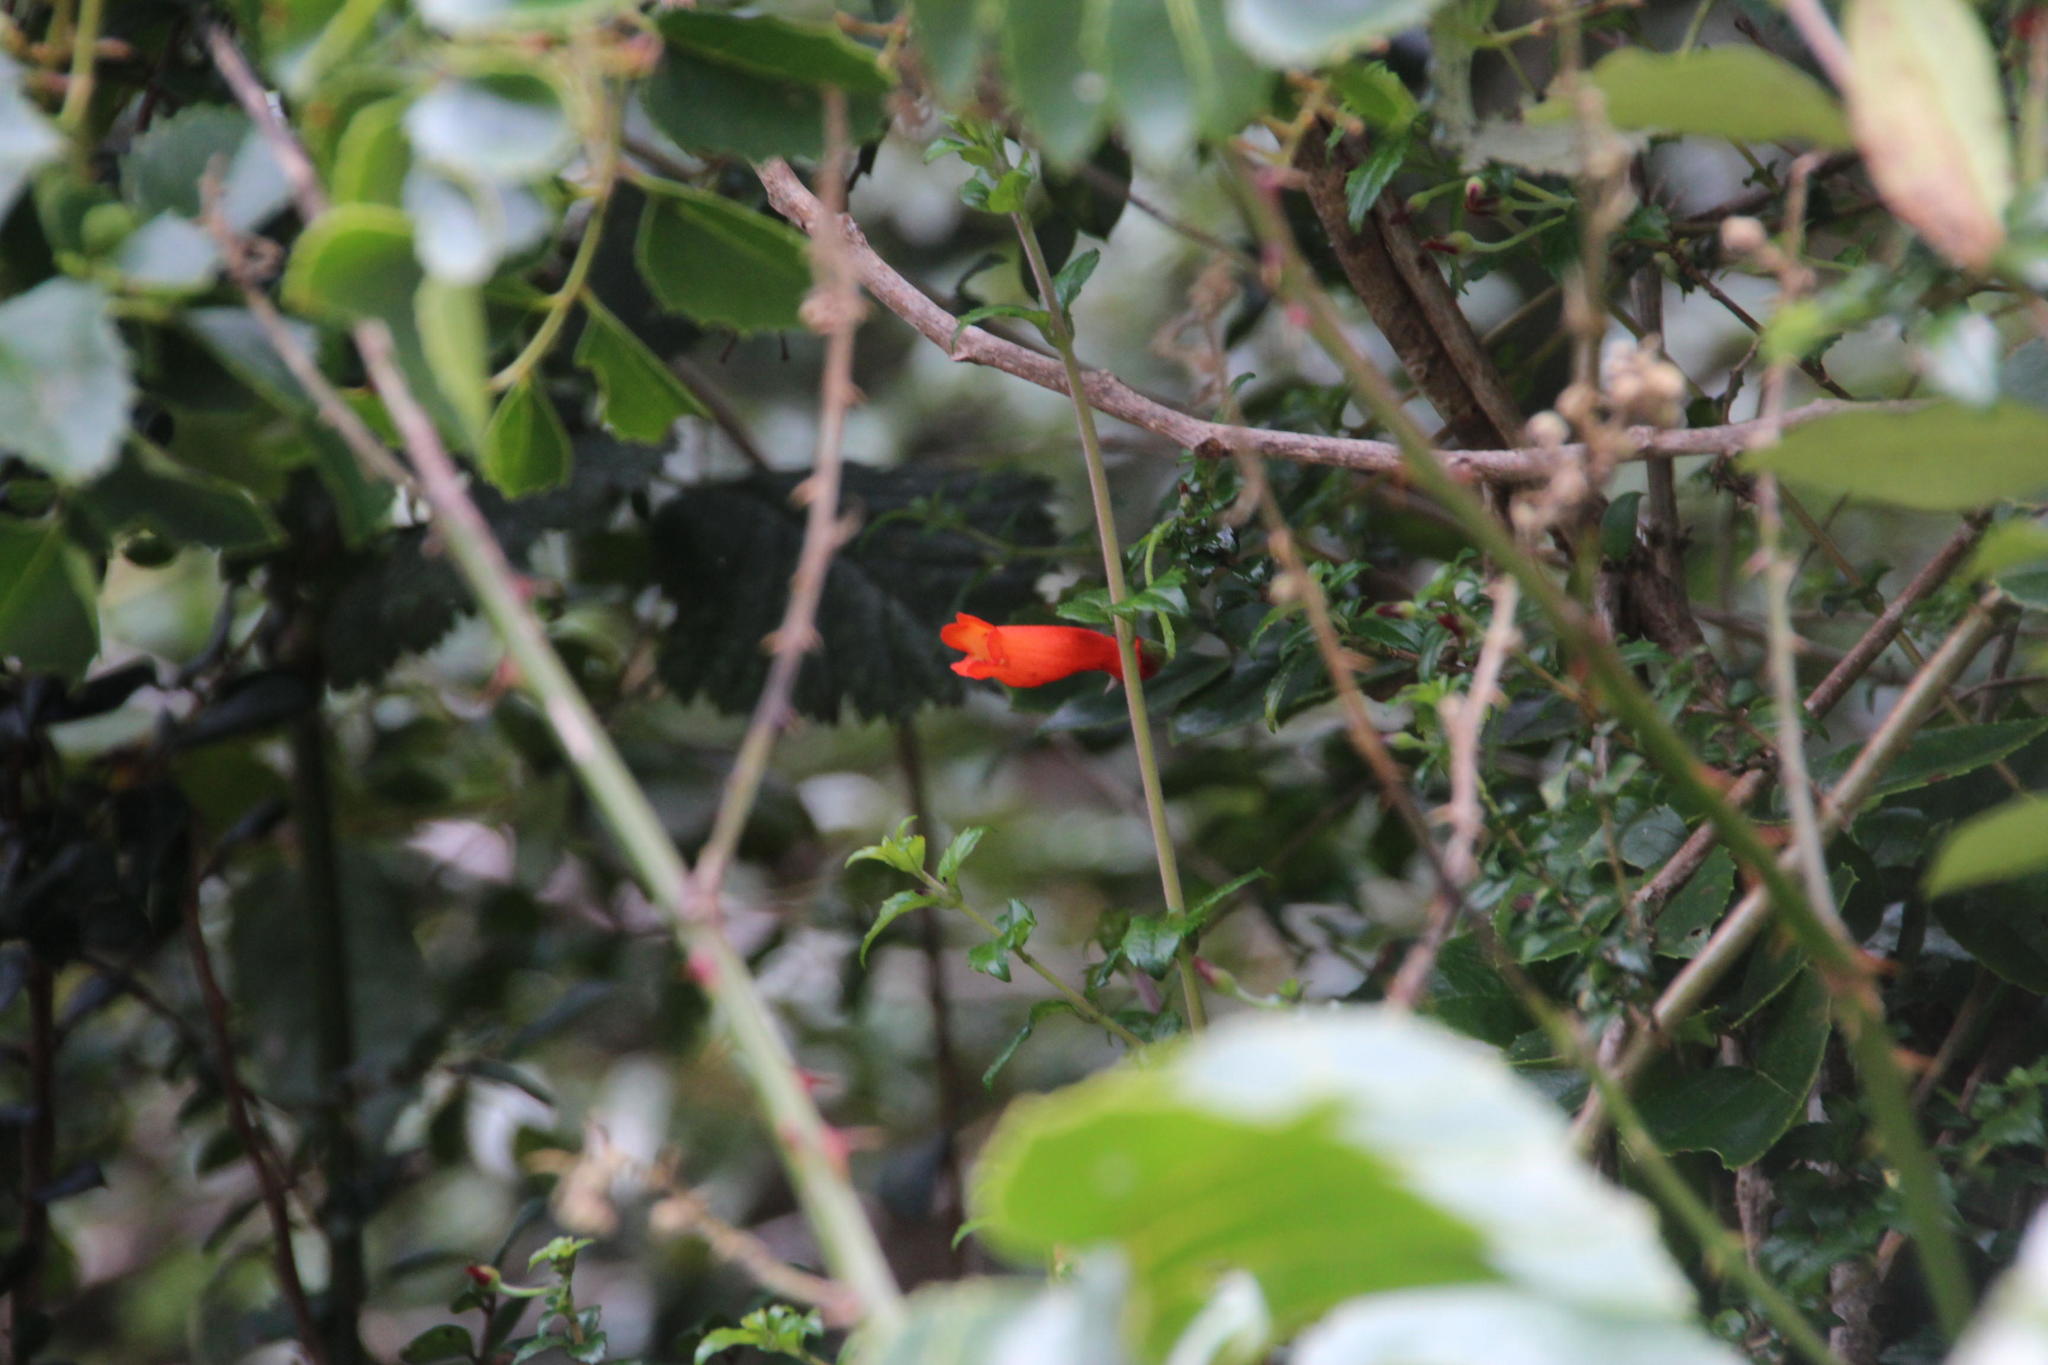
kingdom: Plantae
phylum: Tracheophyta
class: Magnoliopsida
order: Lamiales
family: Gesneriaceae
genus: Mitraria
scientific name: Mitraria coccinea
